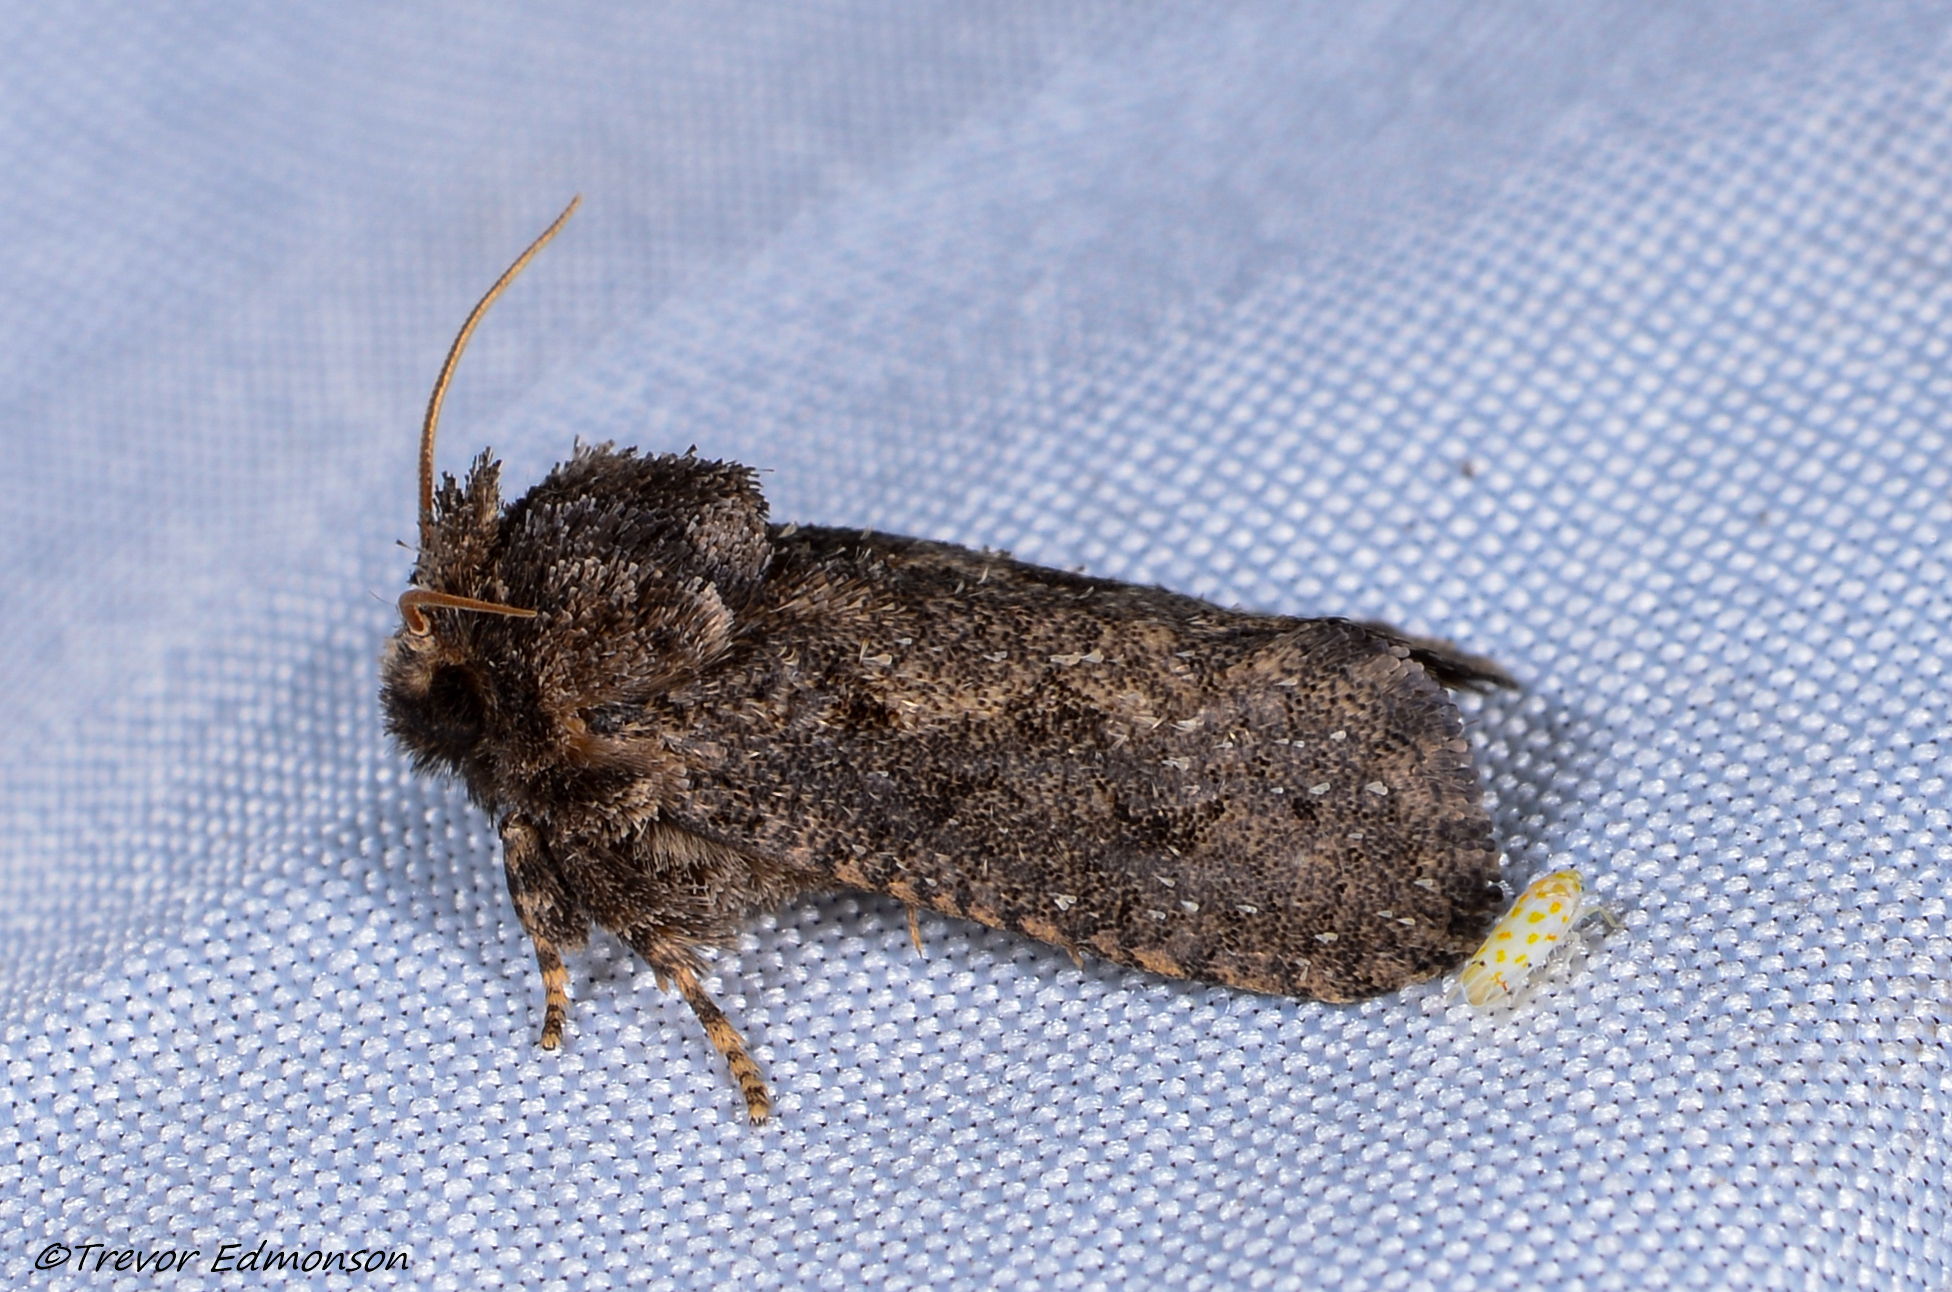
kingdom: Animalia
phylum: Arthropoda
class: Insecta
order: Lepidoptera
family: Tineidae
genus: Acrolophus
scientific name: Acrolophus arcanella
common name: Arcane grass tubeworm moth
